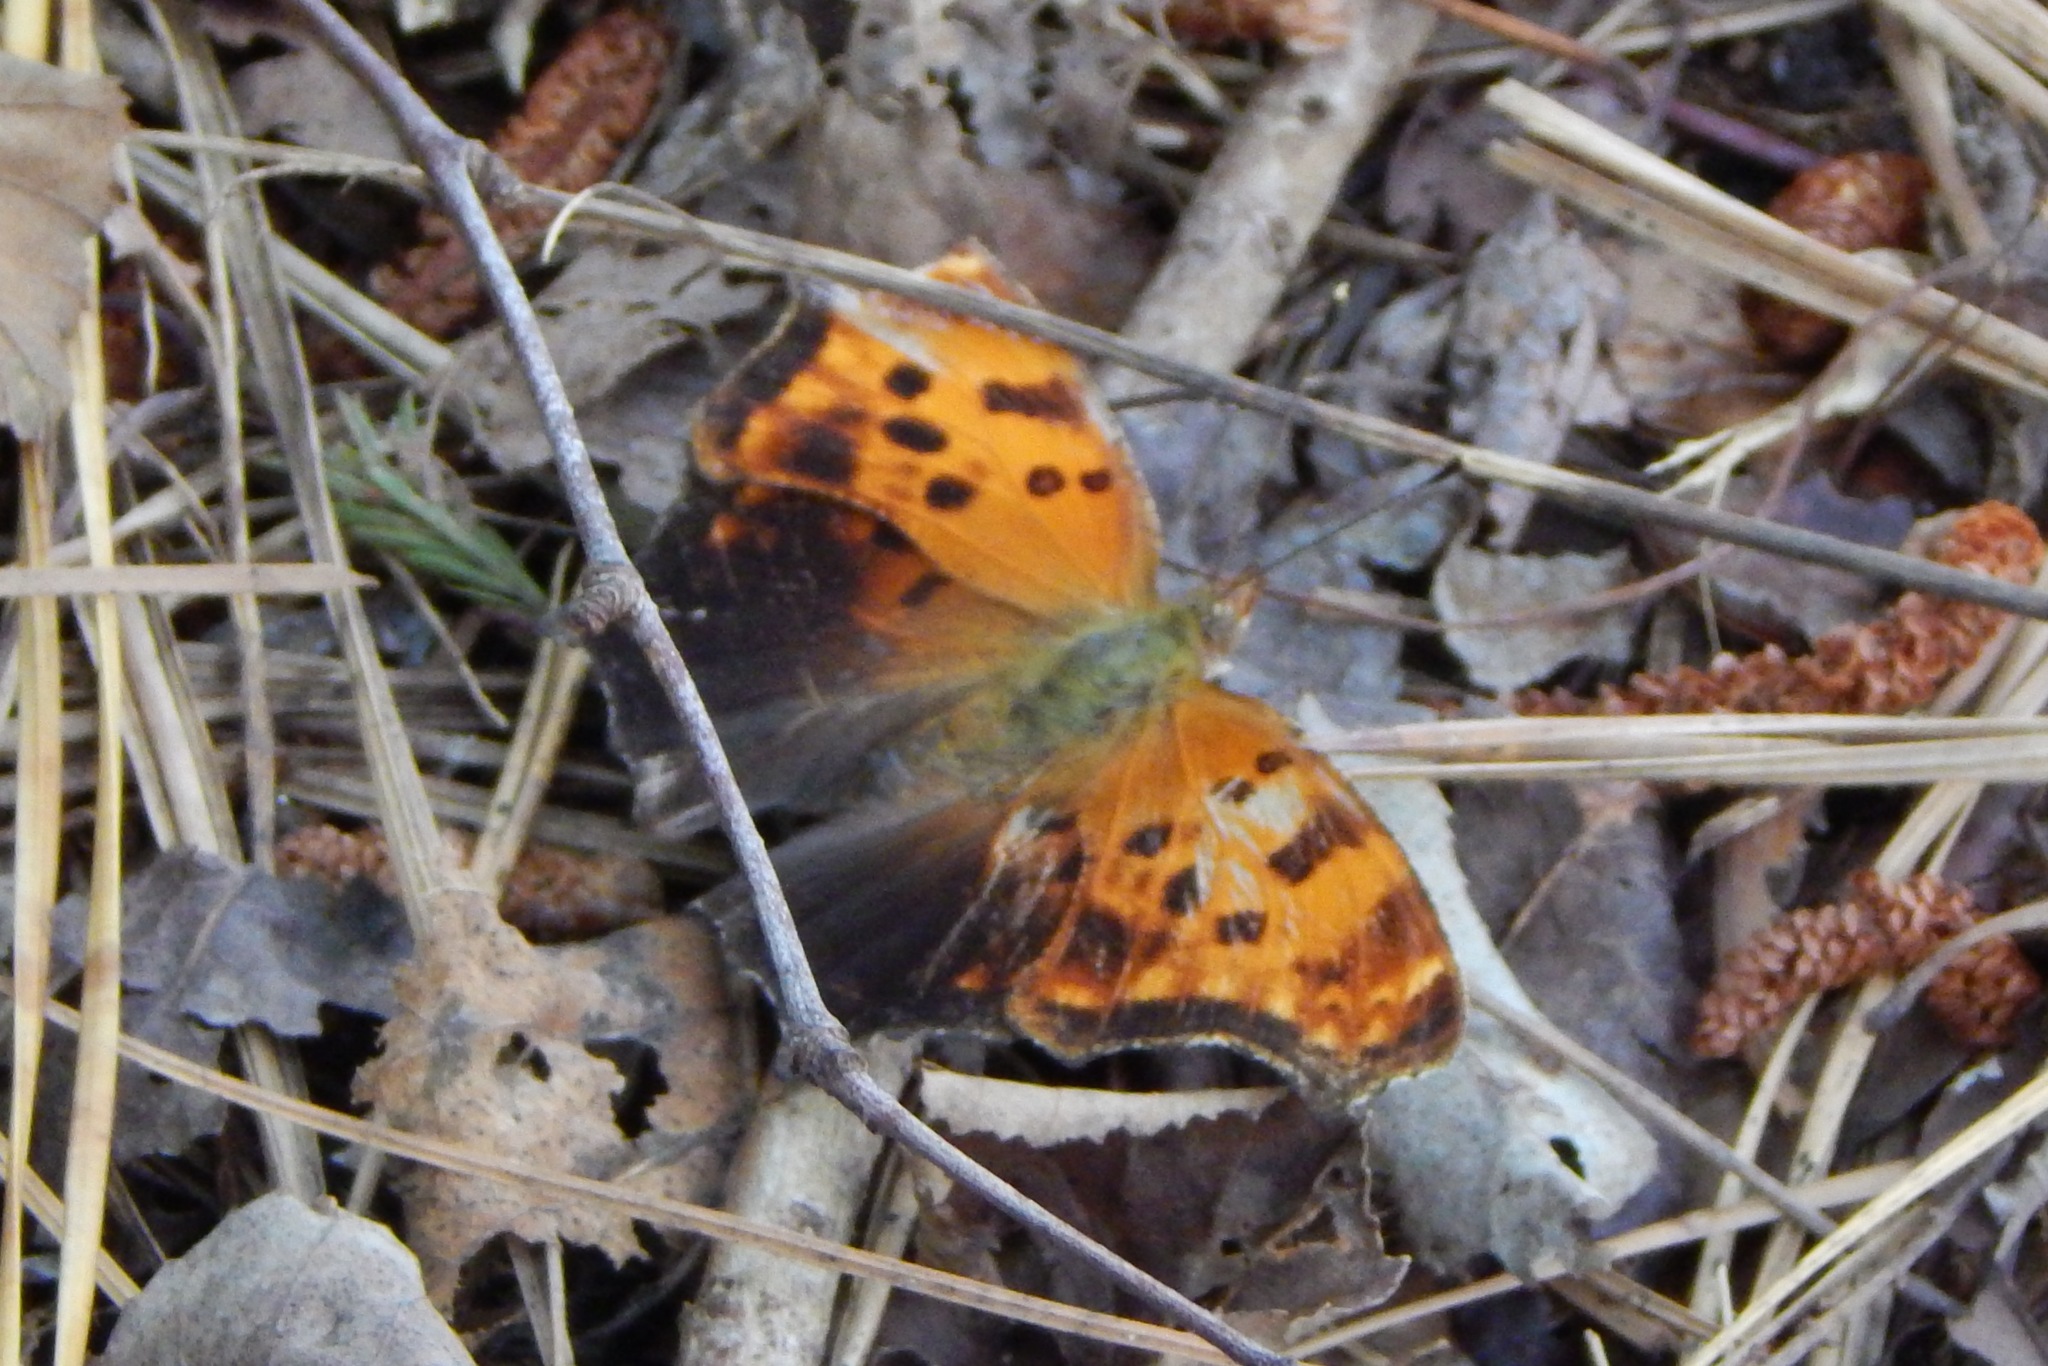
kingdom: Animalia
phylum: Arthropoda
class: Insecta
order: Lepidoptera
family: Nymphalidae
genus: Polygonia
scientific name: Polygonia comma
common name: Eastern comma
